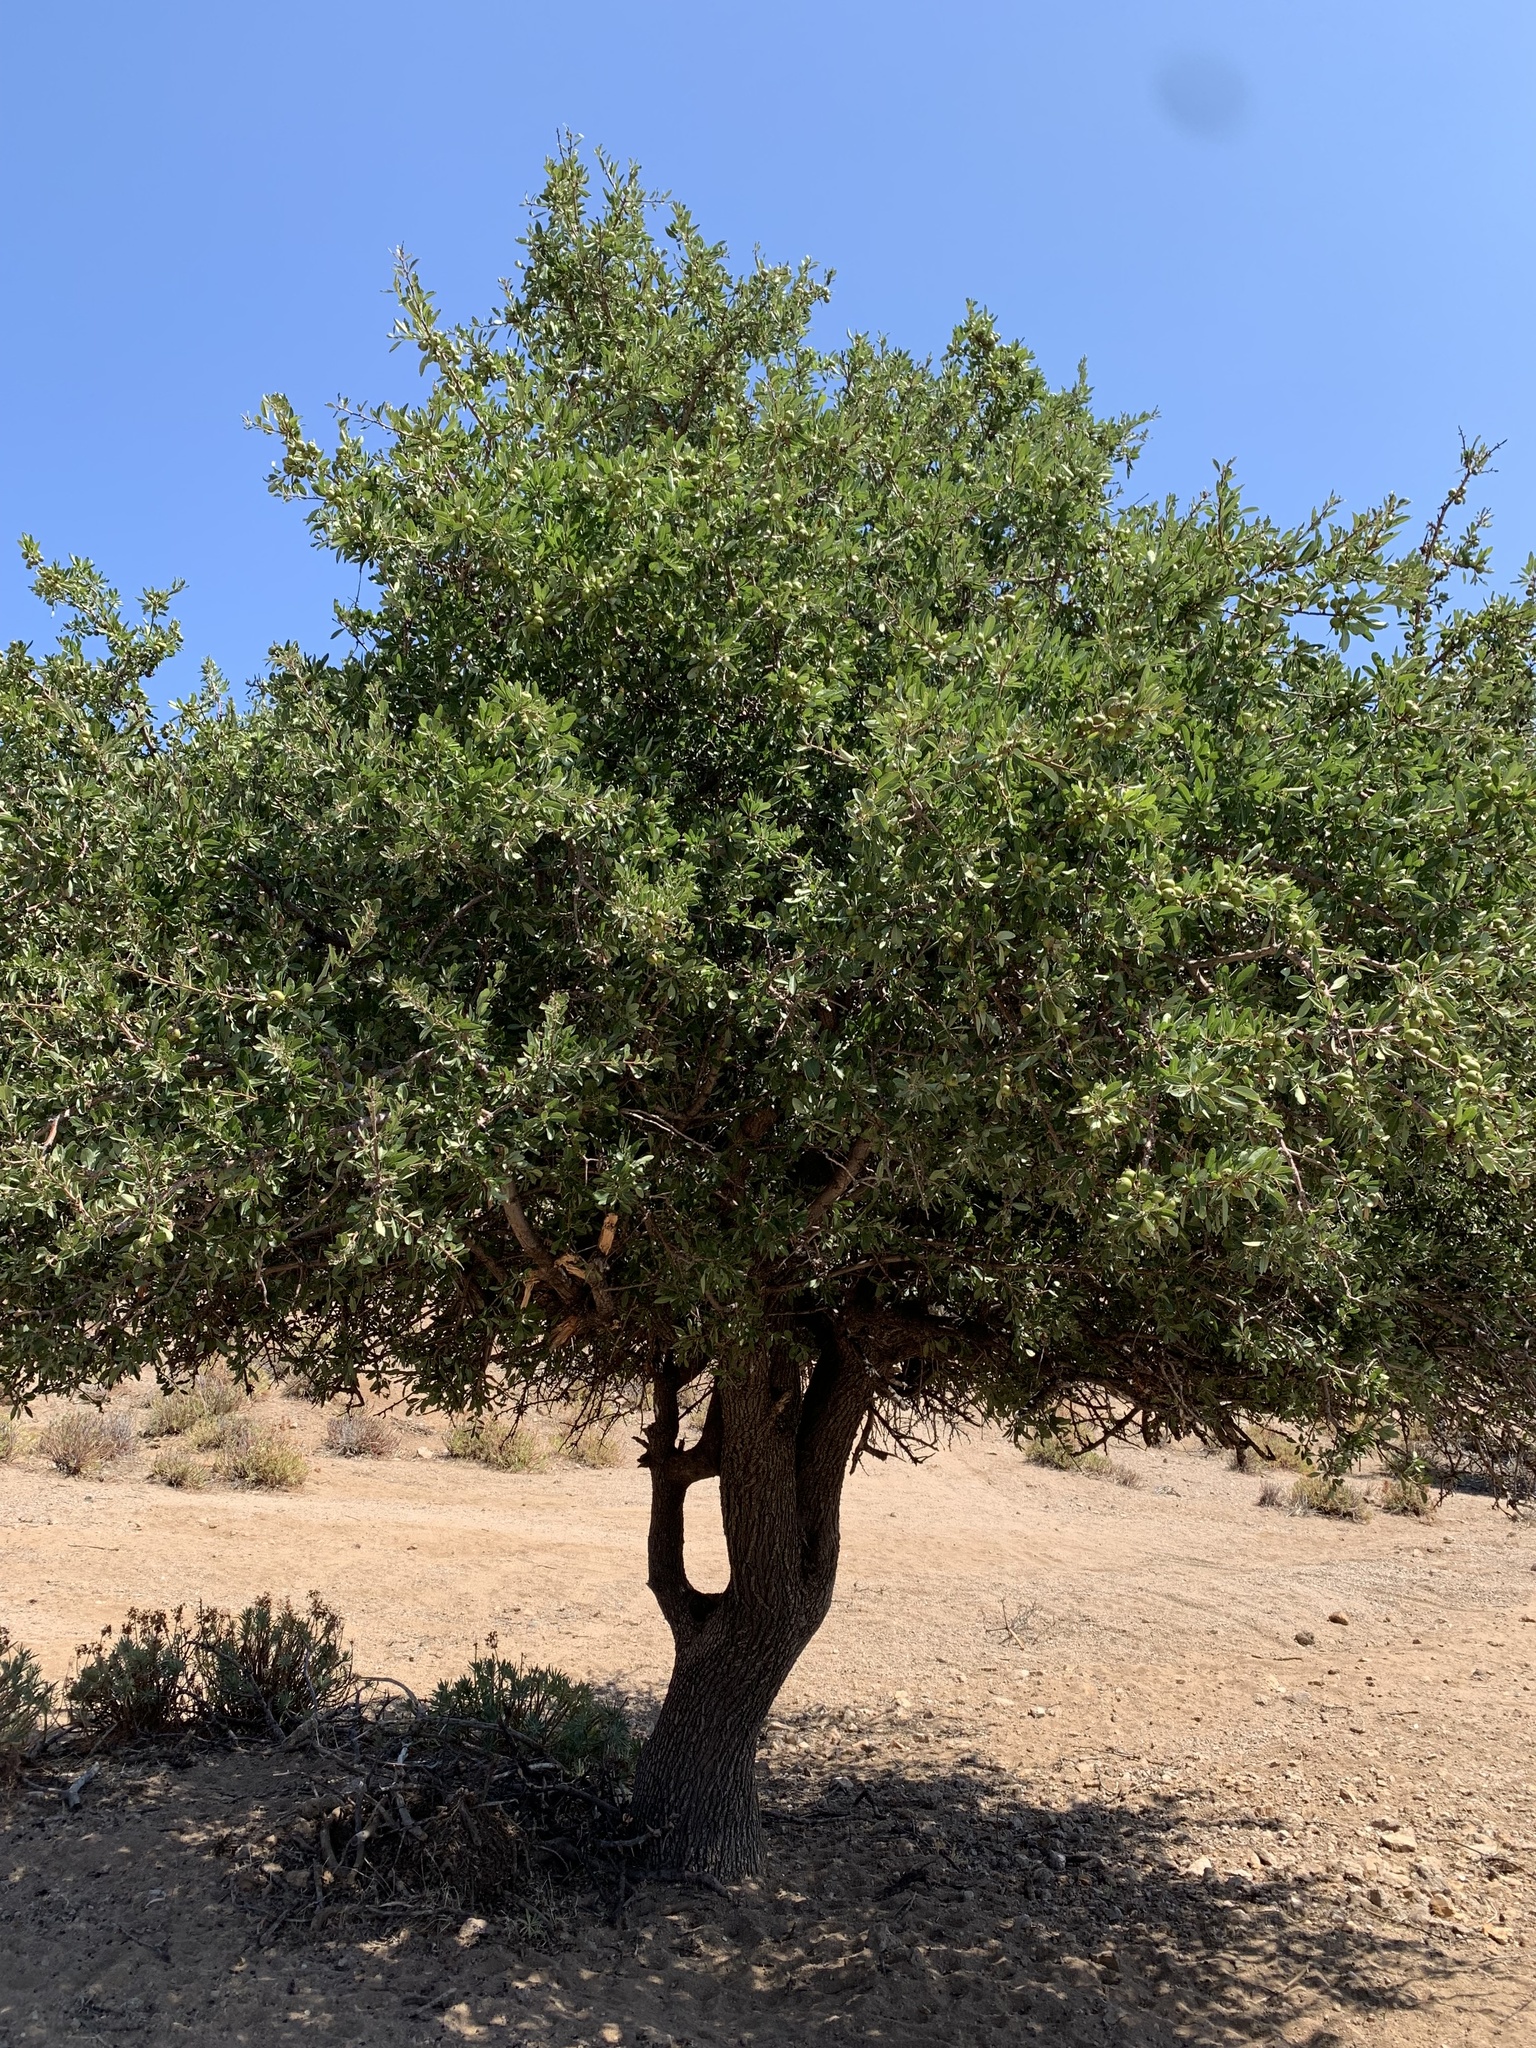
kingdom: Plantae
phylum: Tracheophyta
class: Magnoliopsida
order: Rosales
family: Rosaceae
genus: Pyrus
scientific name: Pyrus spinosa
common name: Almond-leaf pear
